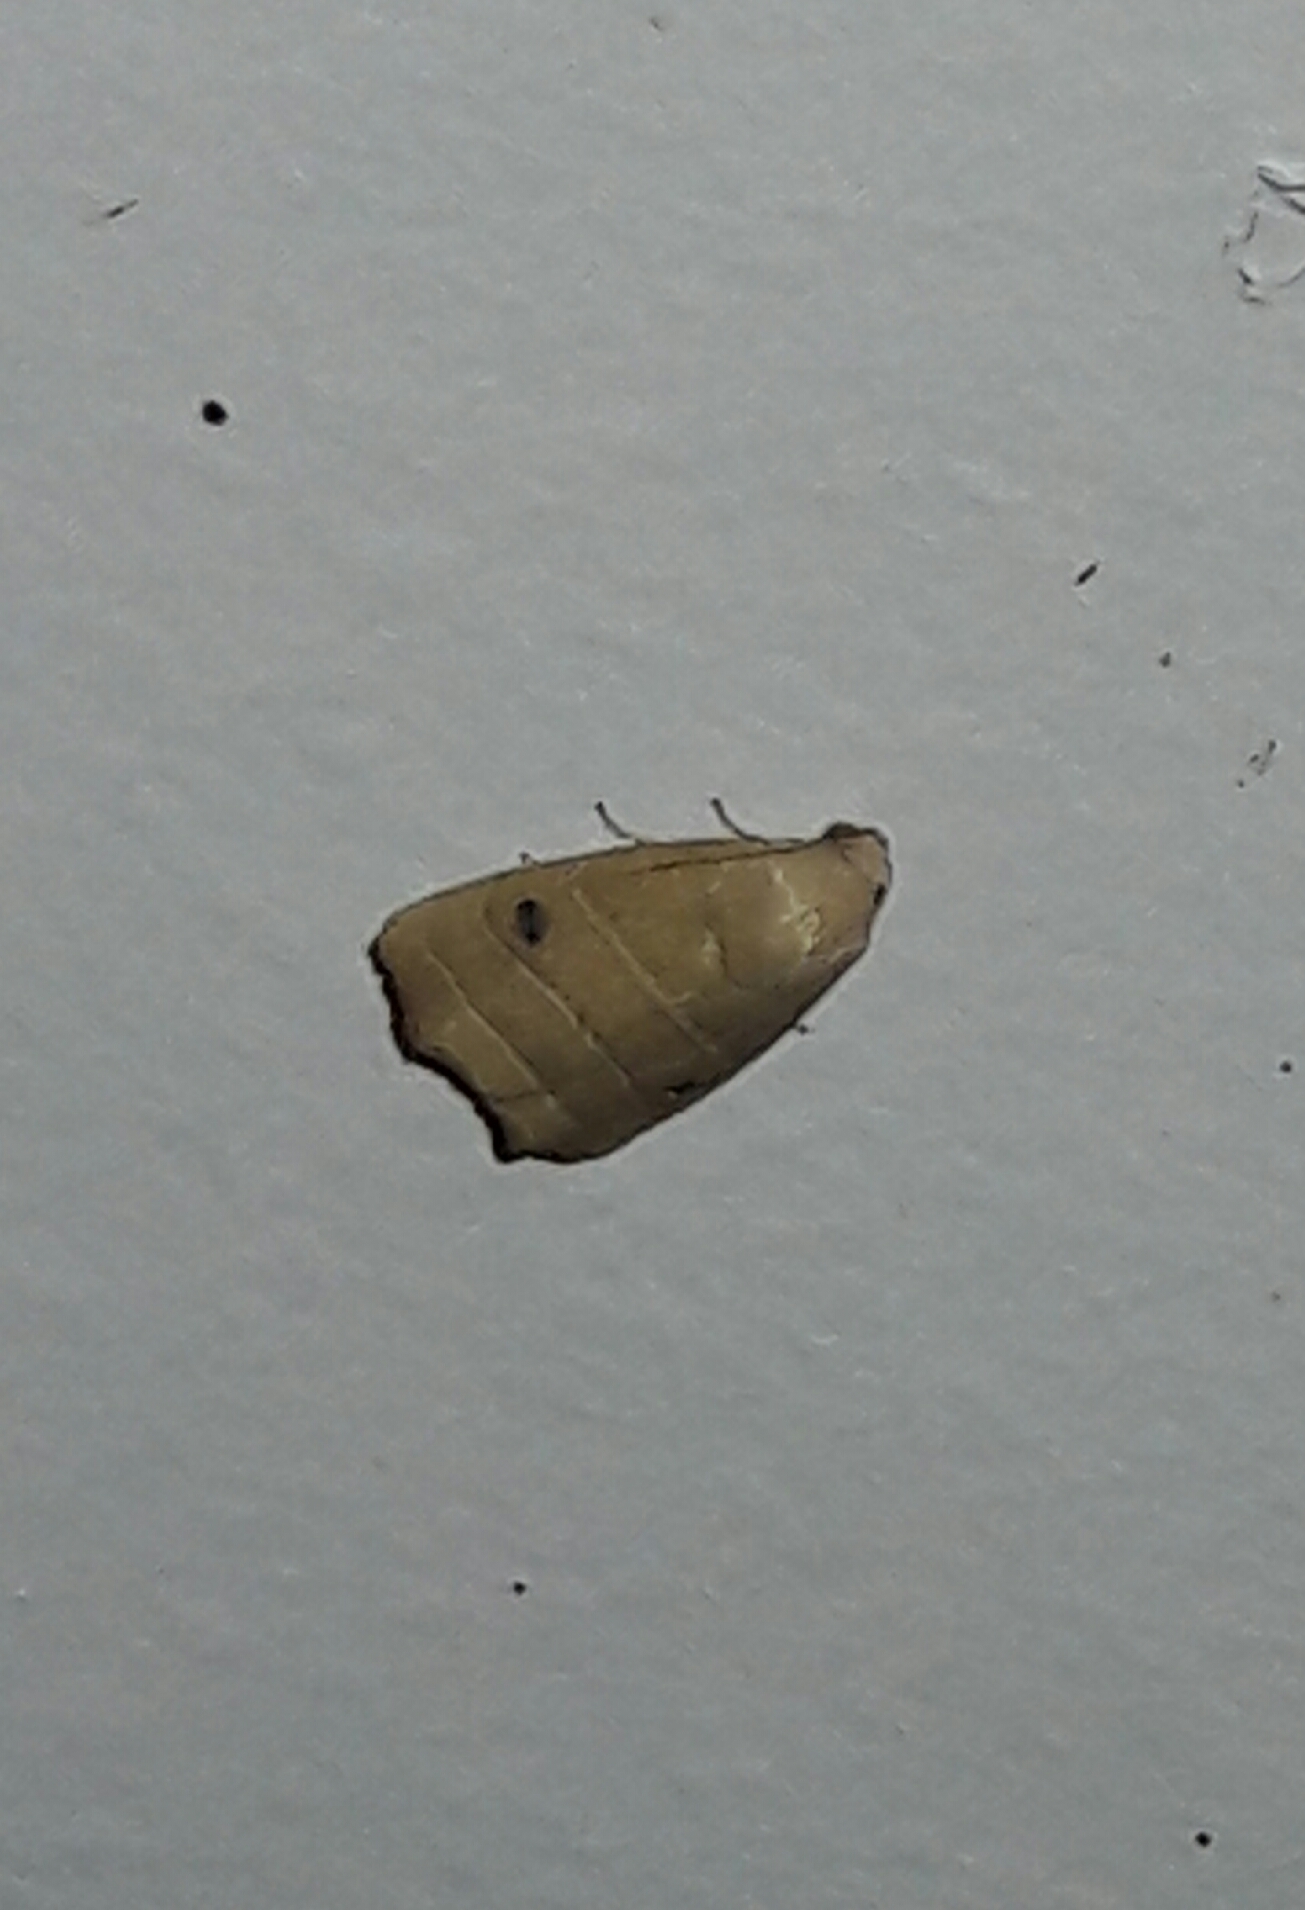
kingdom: Animalia
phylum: Arthropoda
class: Insecta
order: Lepidoptera
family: Noctuidae
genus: Bagisara
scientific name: Bagisara repanda
